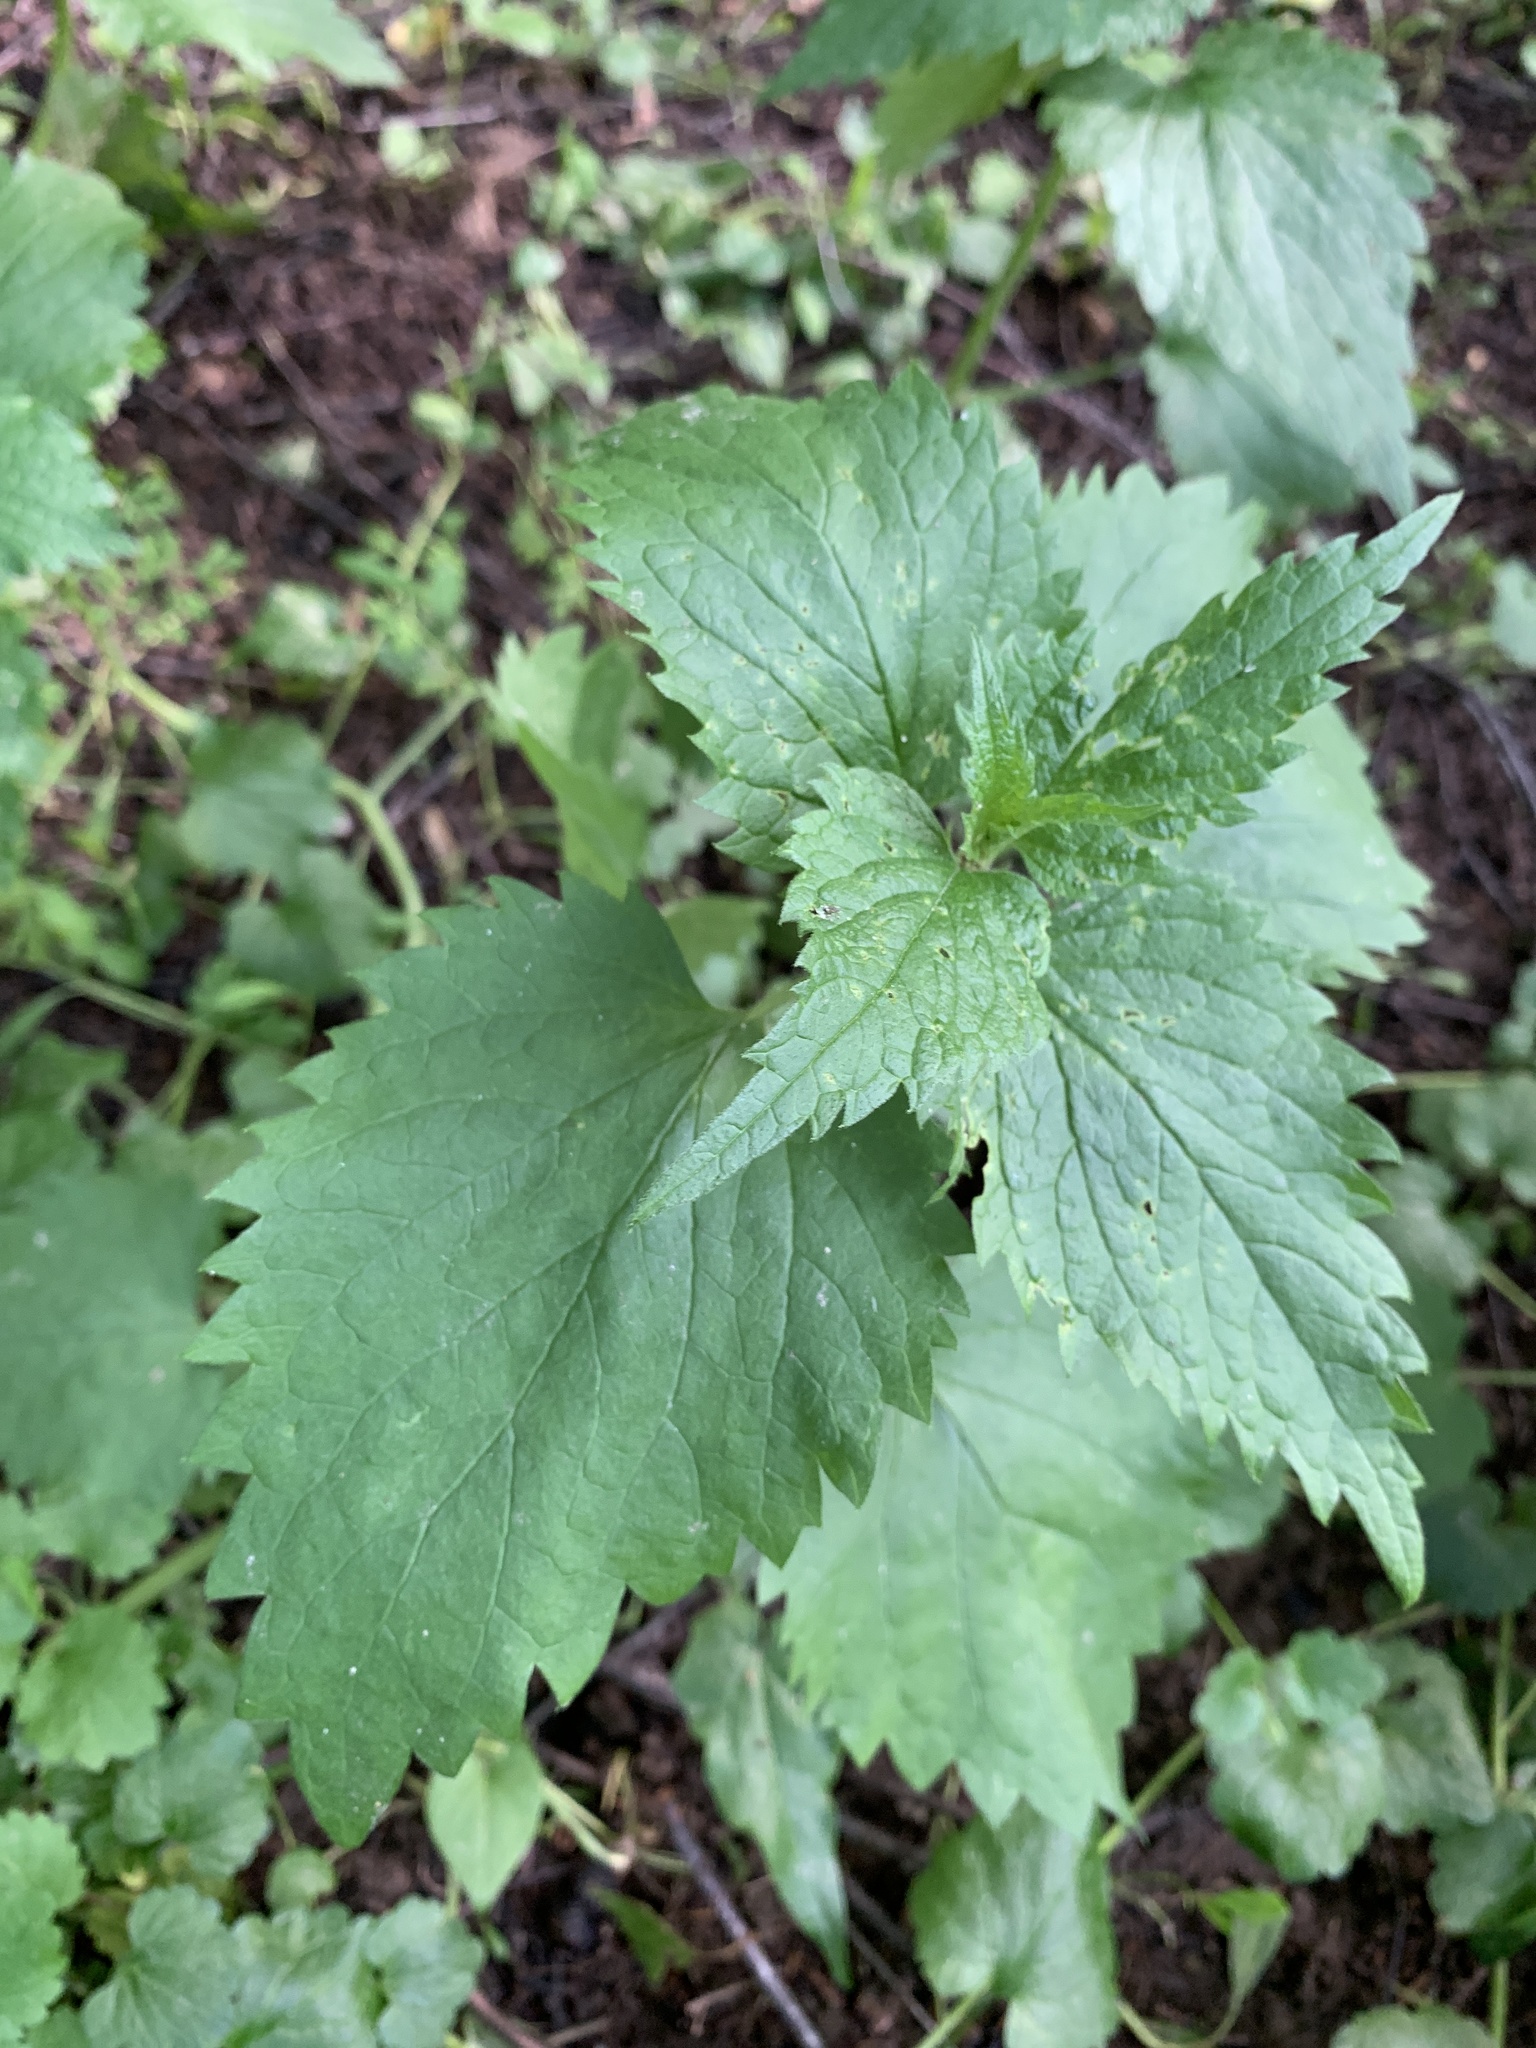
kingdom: Plantae
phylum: Tracheophyta
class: Magnoliopsida
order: Rosales
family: Urticaceae
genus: Urtica
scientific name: Urtica dioica
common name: Common nettle
